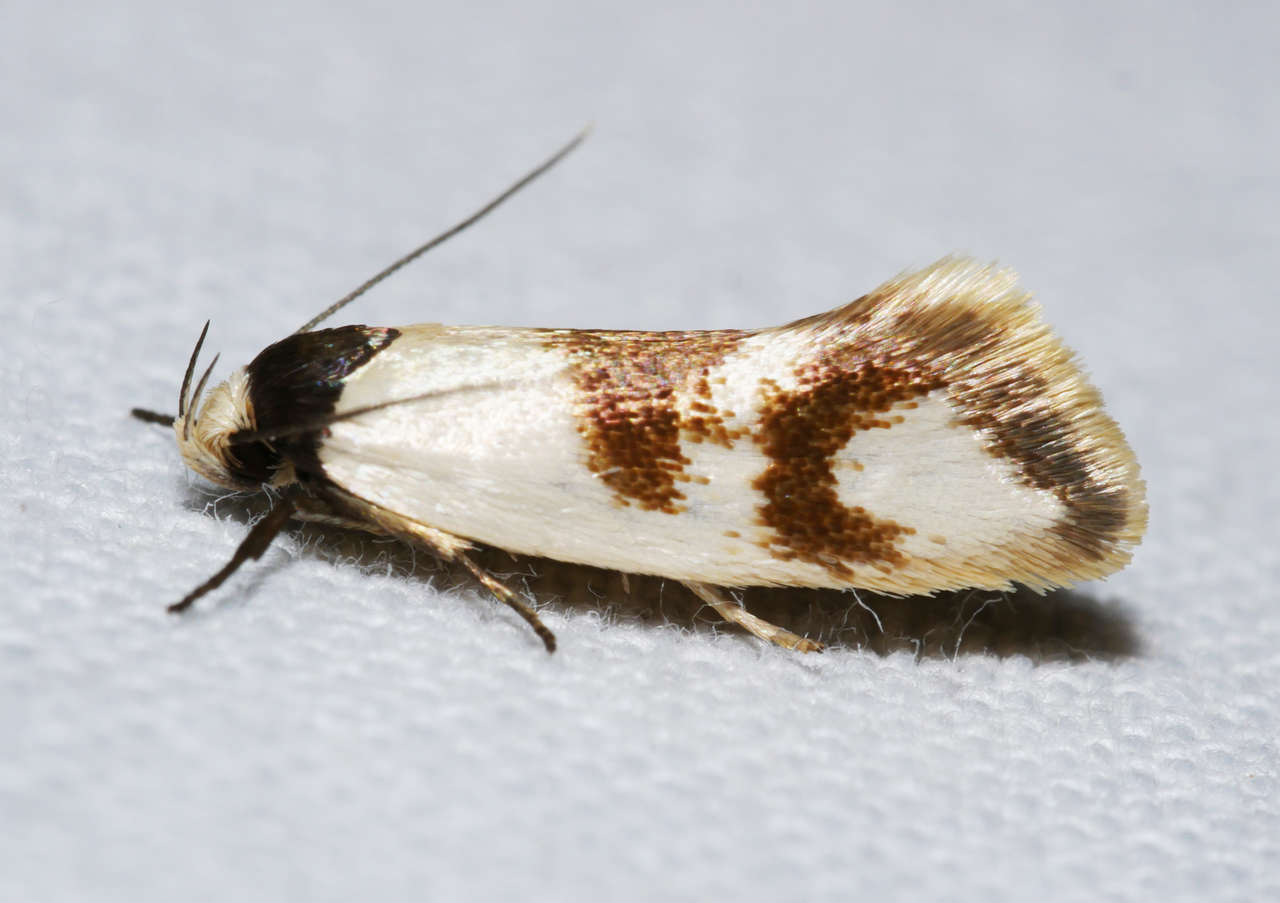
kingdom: Animalia
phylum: Arthropoda
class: Insecta
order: Lepidoptera
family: Oecophoridae
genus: Antipterna
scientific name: Antipterna trilicella
